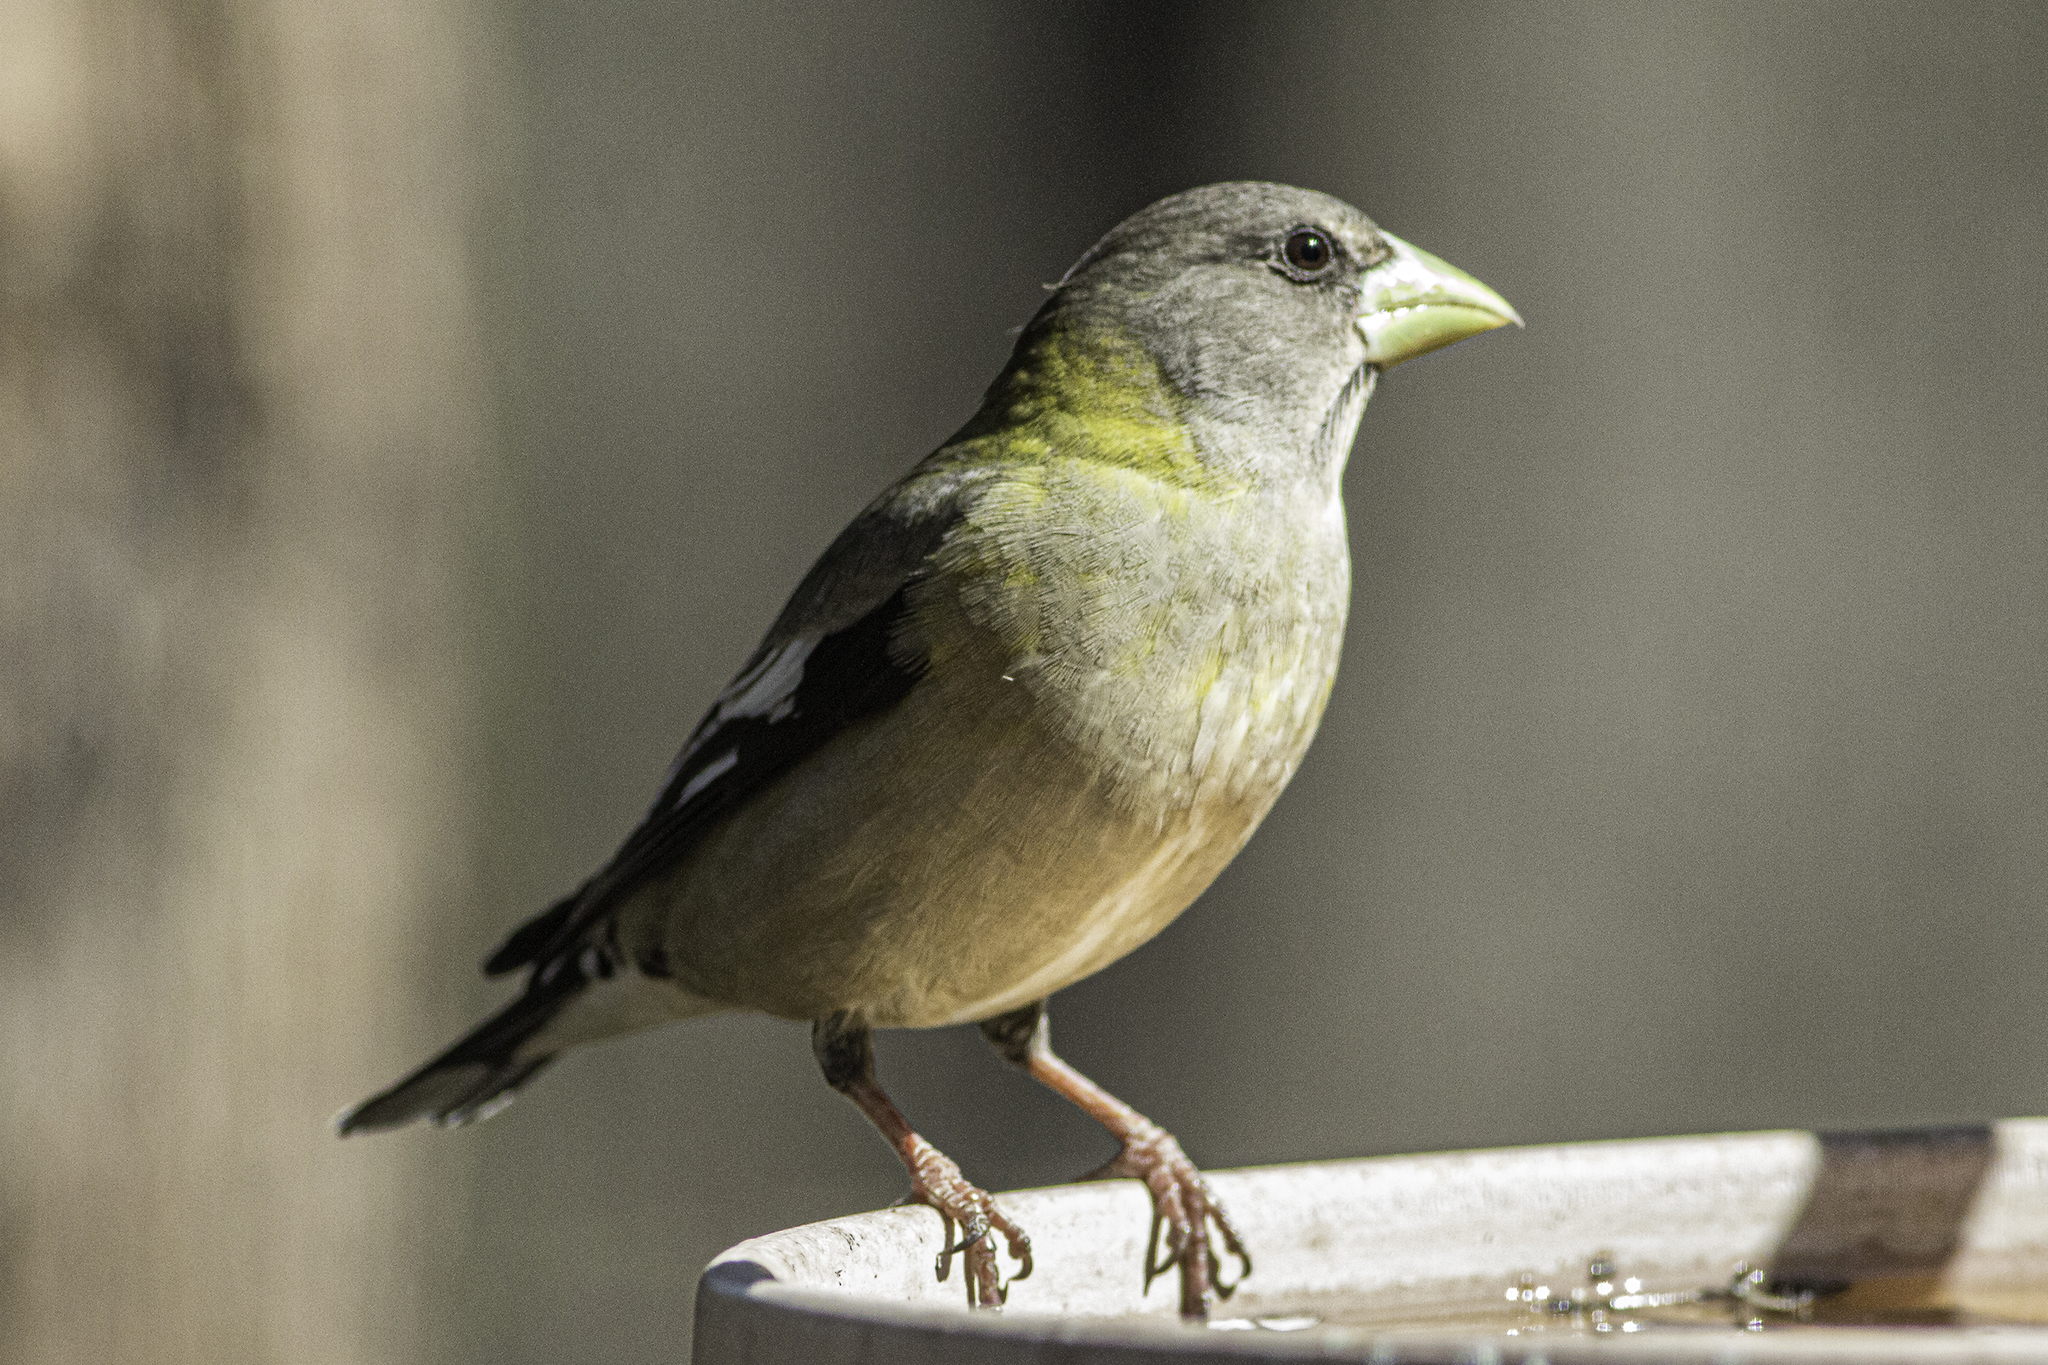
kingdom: Animalia
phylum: Chordata
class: Aves
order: Passeriformes
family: Fringillidae
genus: Hesperiphona
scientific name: Hesperiphona vespertina
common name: Evening grosbeak
